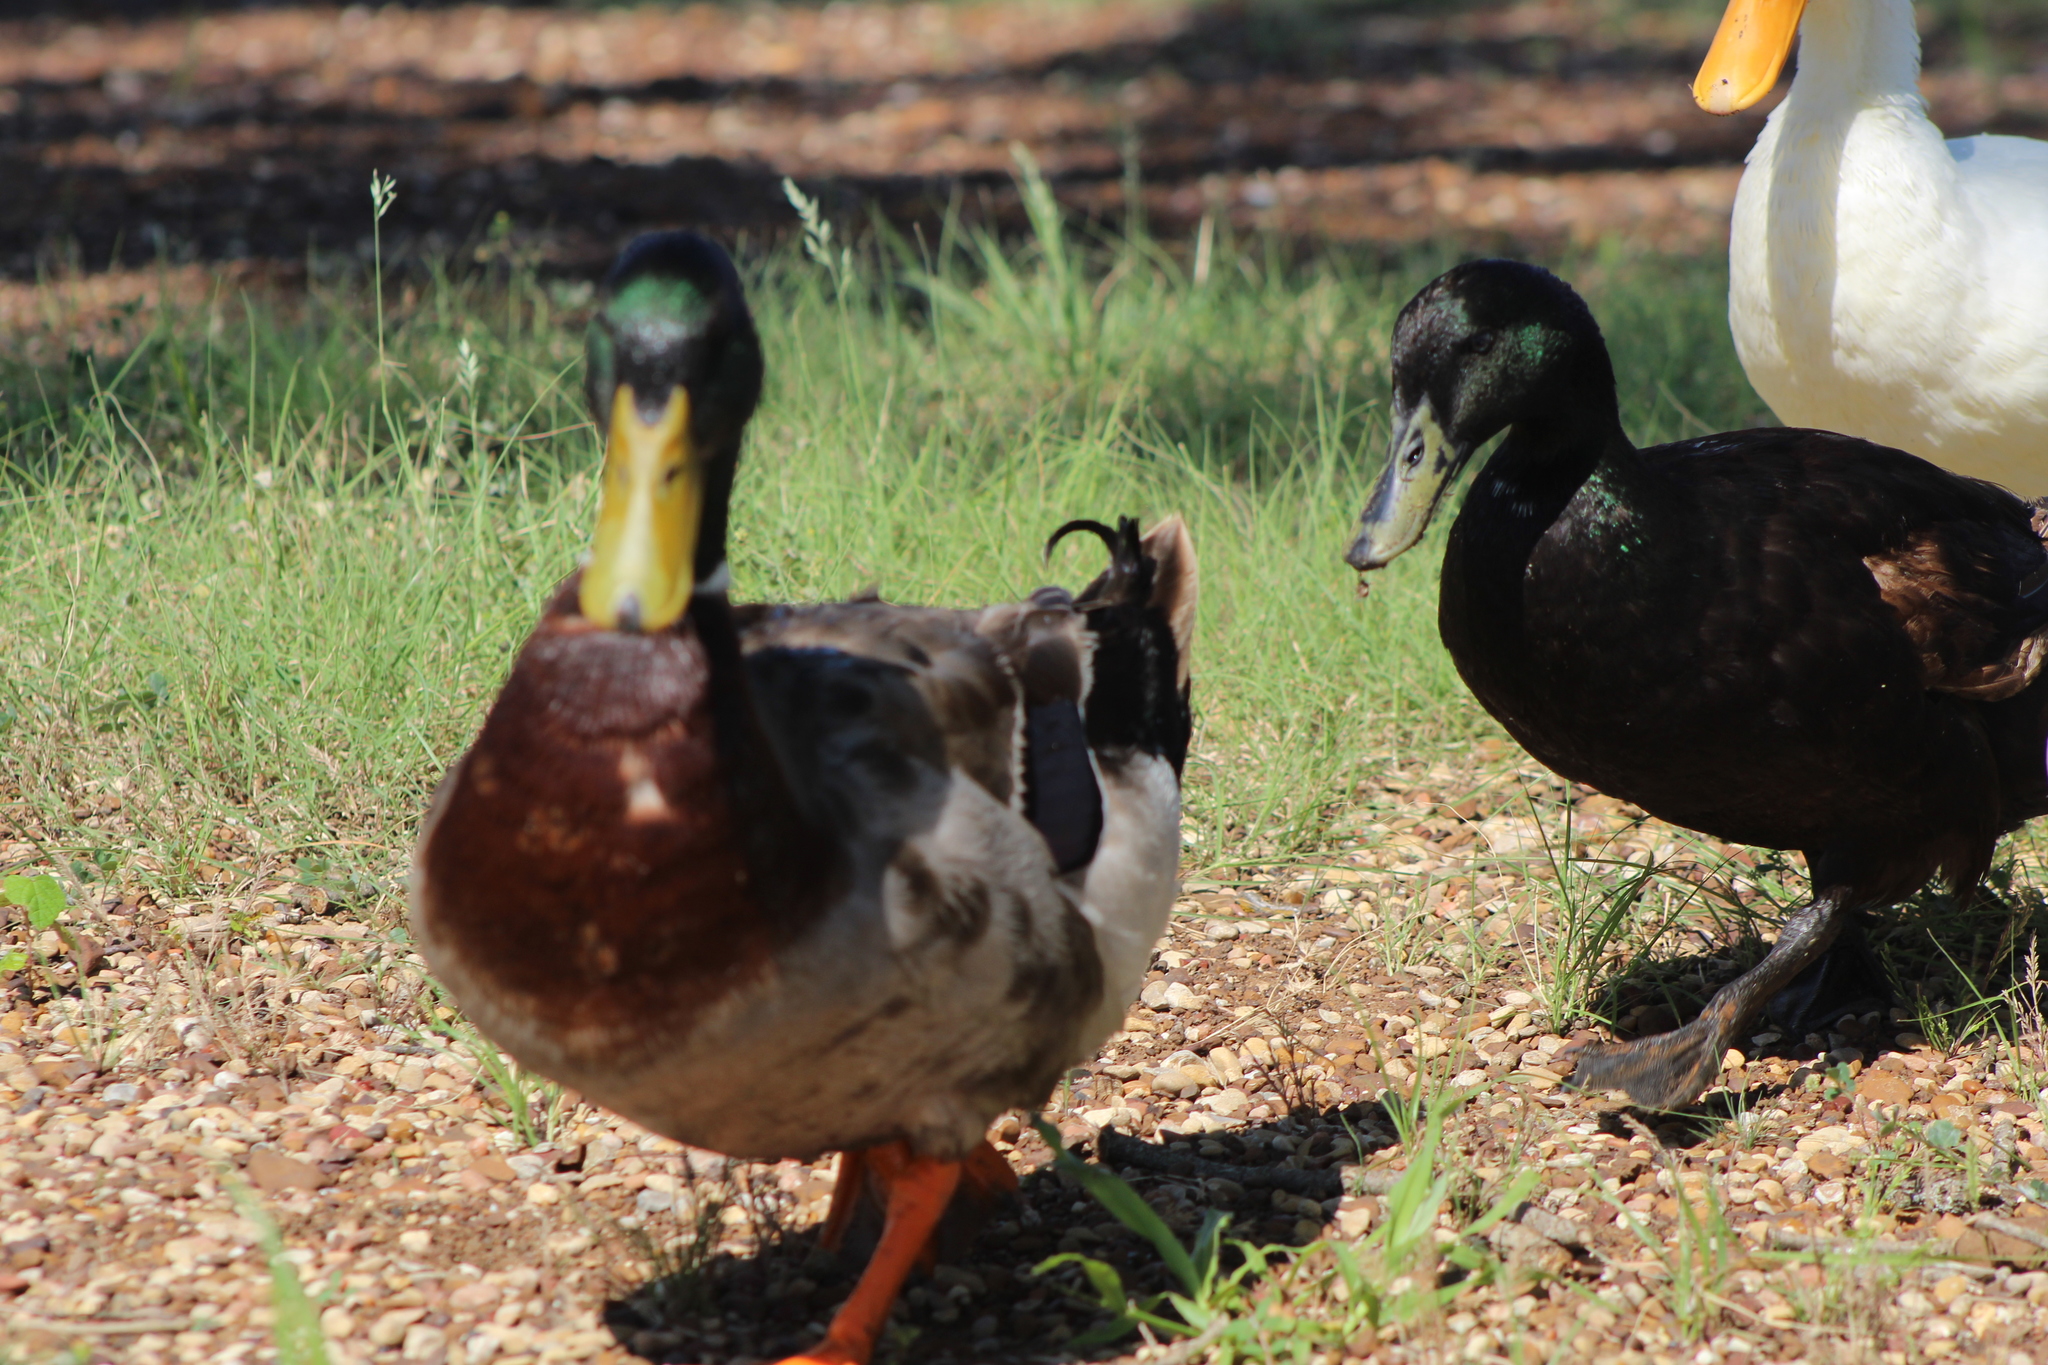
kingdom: Animalia
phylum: Chordata
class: Aves
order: Anseriformes
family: Anatidae
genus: Anas
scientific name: Anas platyrhynchos
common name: Mallard
